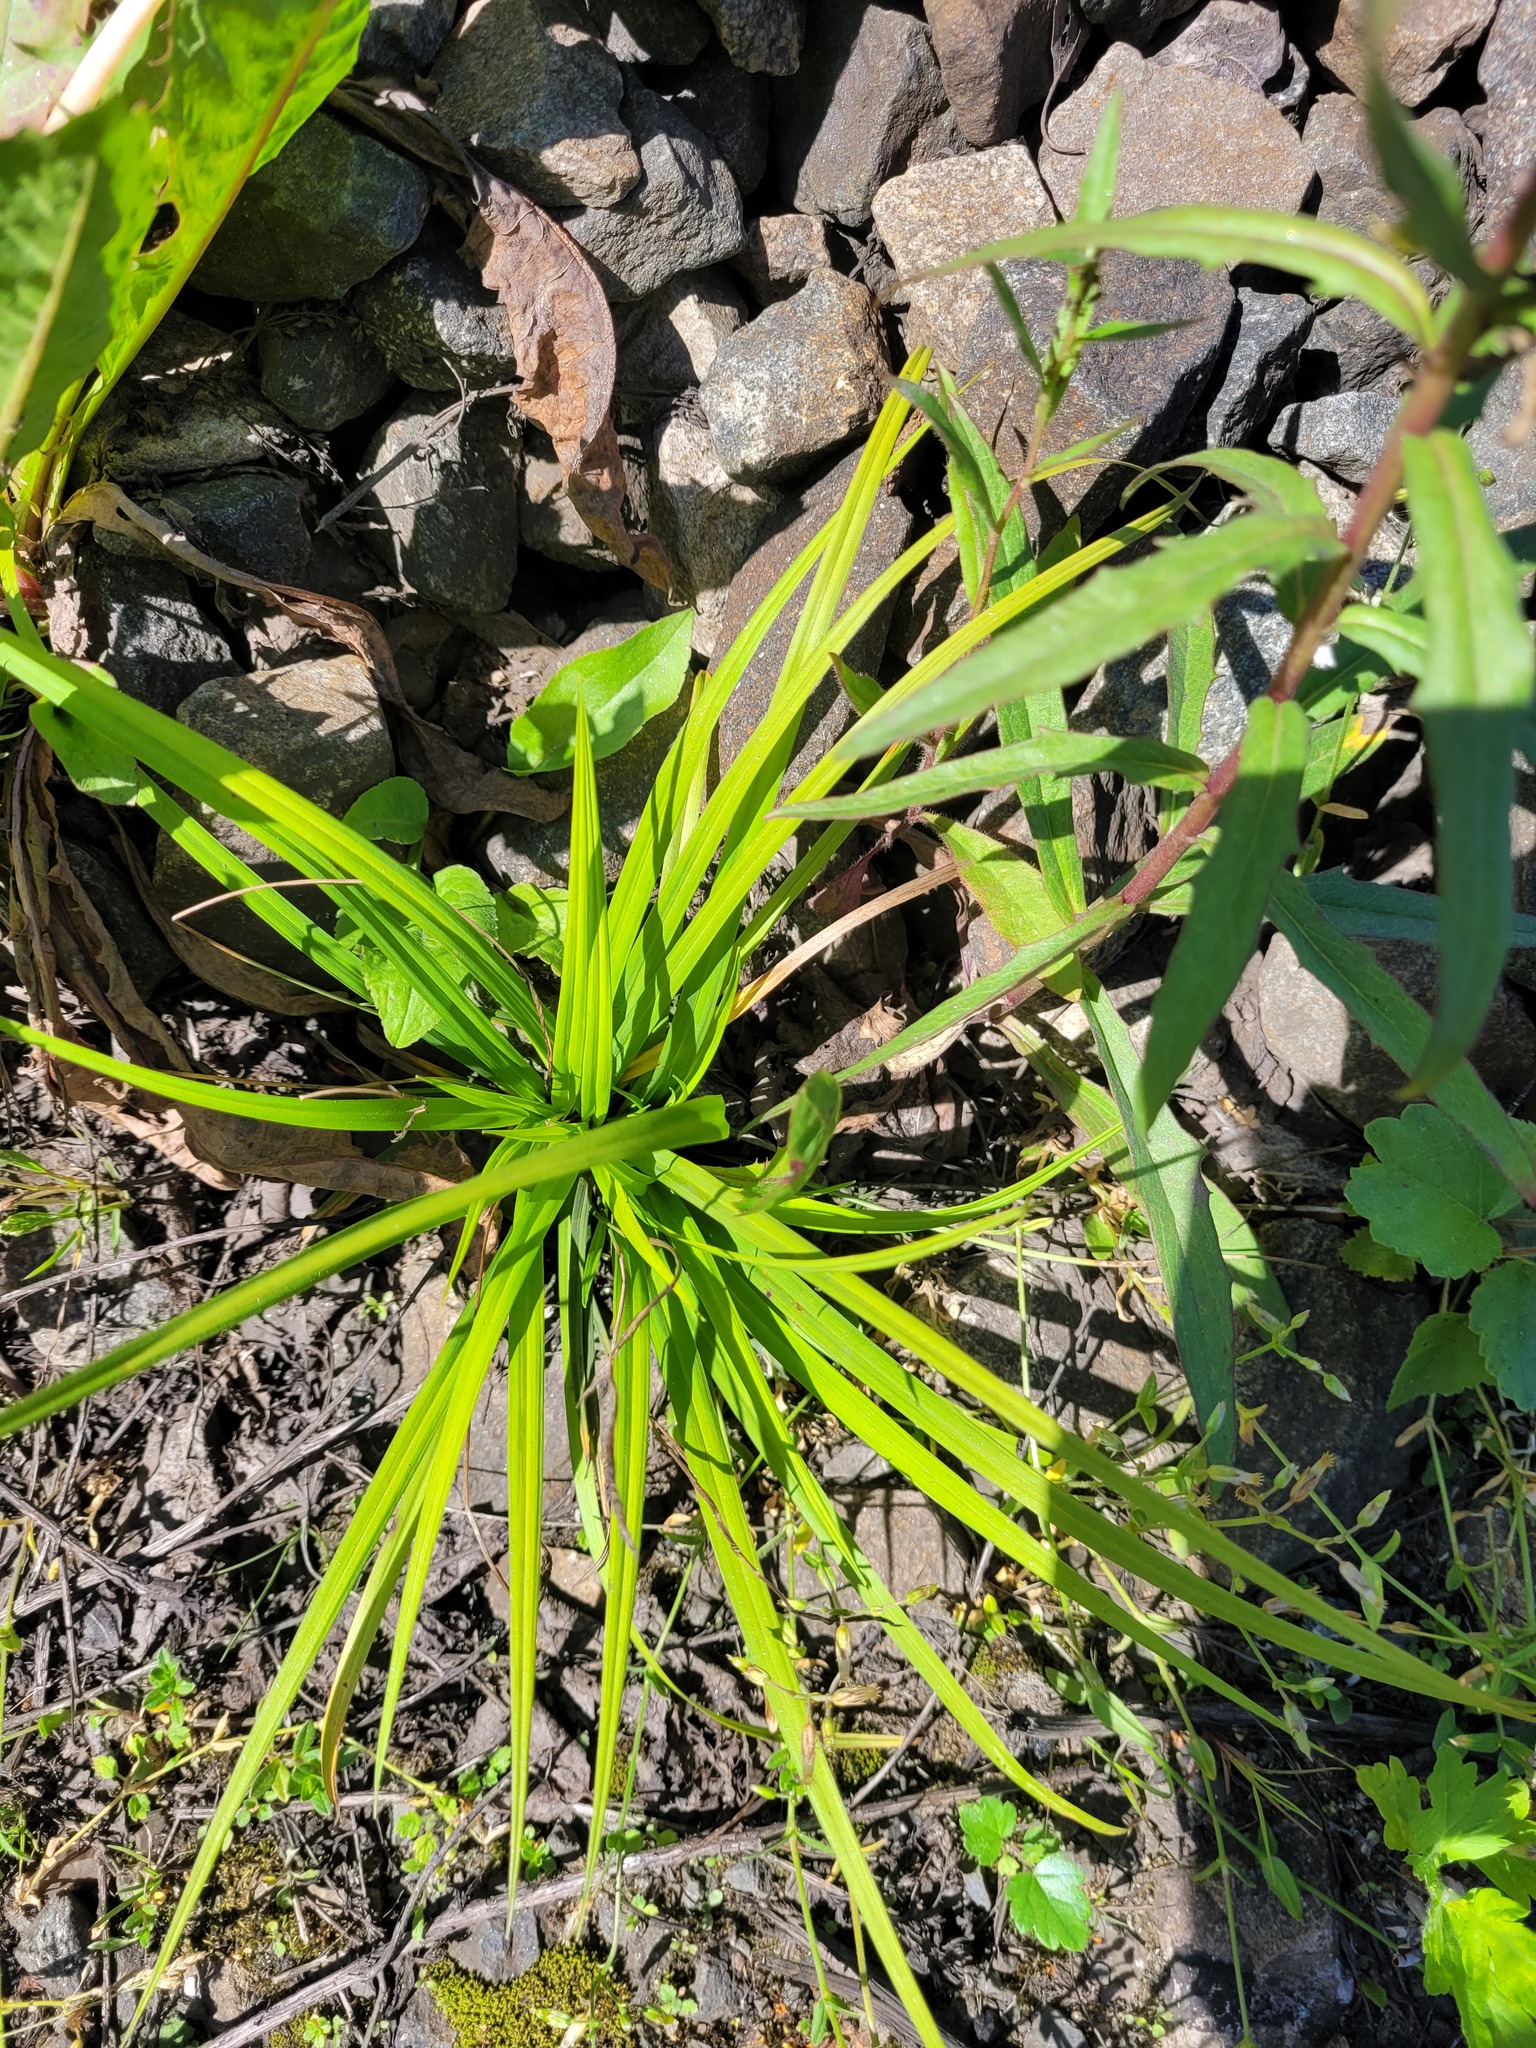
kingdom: Plantae
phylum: Tracheophyta
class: Liliopsida
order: Poales
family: Cyperaceae
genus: Carex
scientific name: Carex digitata
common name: Fingered sedge
